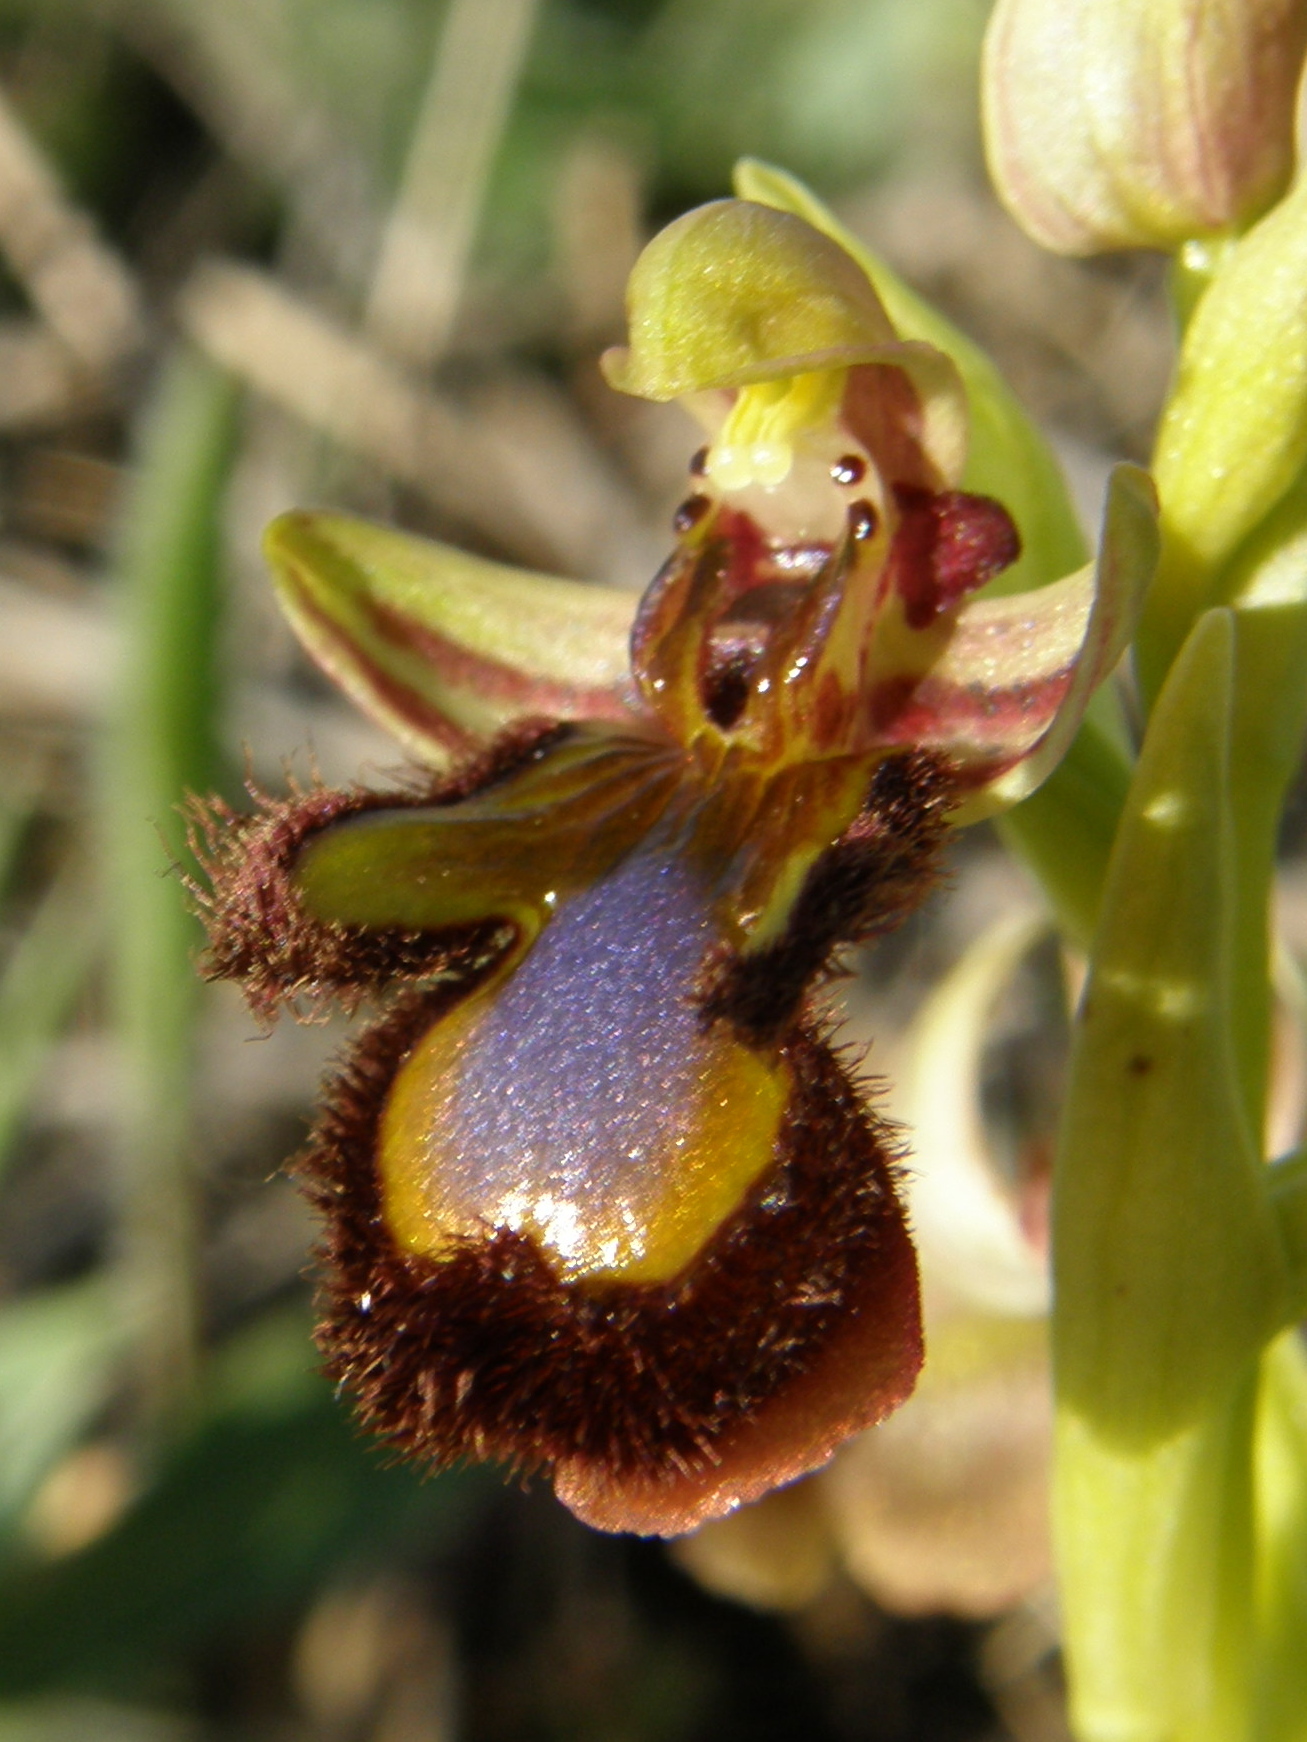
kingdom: Plantae
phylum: Tracheophyta
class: Liliopsida
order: Asparagales
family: Orchidaceae
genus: Ophrys
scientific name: Ophrys speculum
